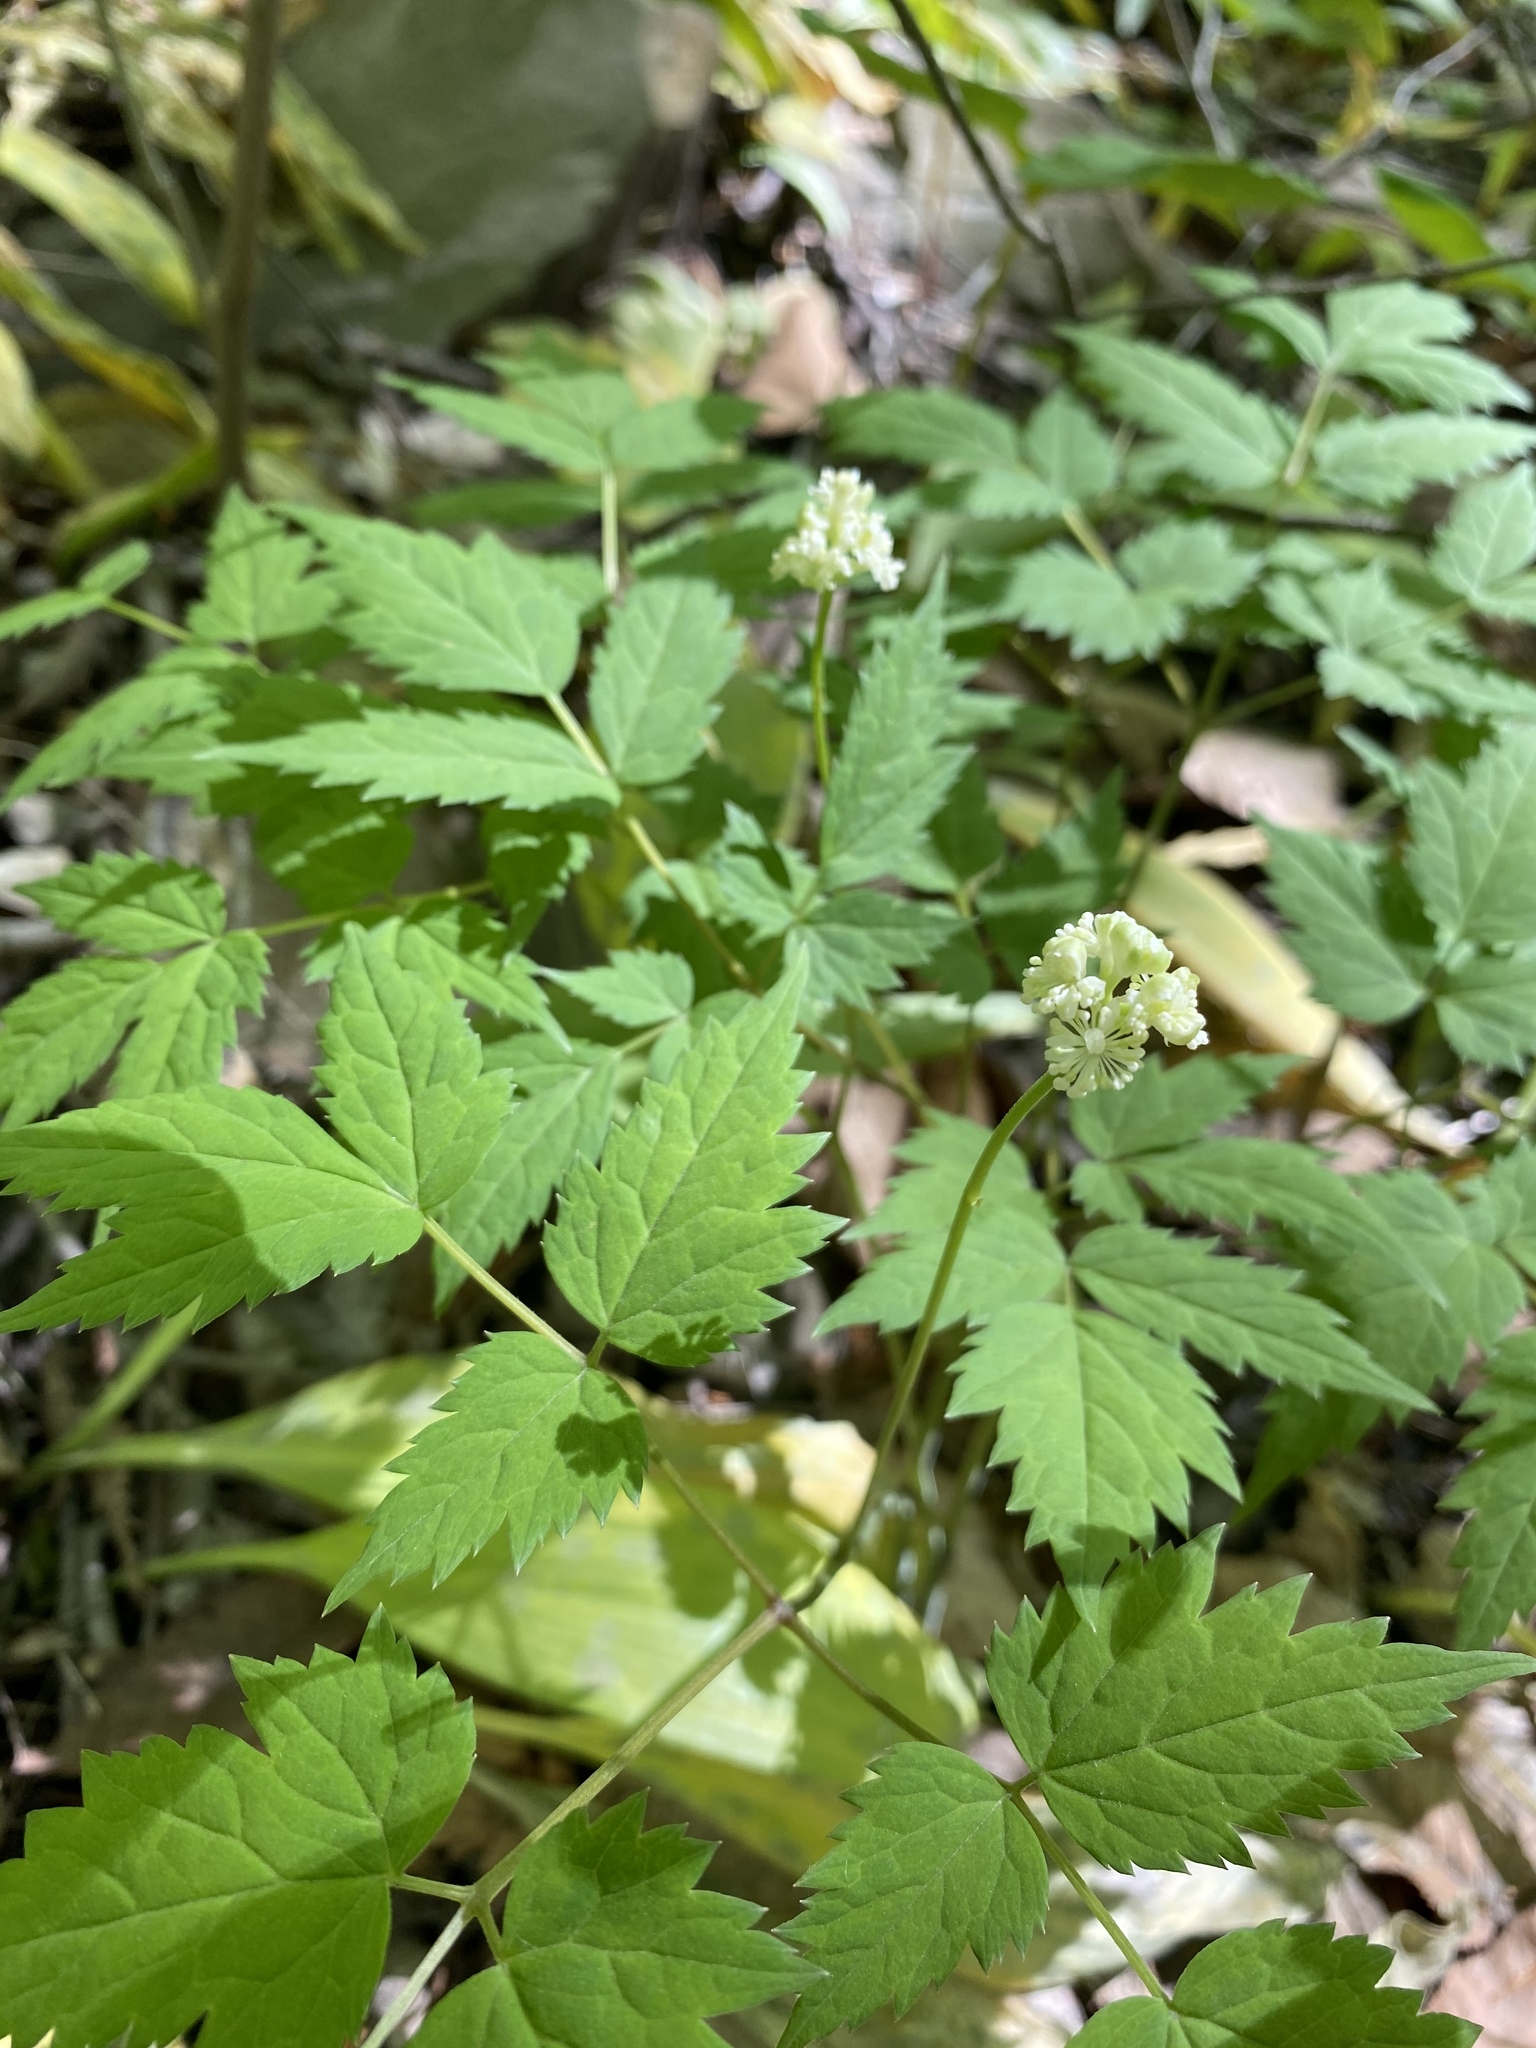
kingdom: Plantae
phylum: Tracheophyta
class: Magnoliopsida
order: Ranunculales
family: Ranunculaceae
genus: Actaea
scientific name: Actaea pachypoda
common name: Doll's-eyes
